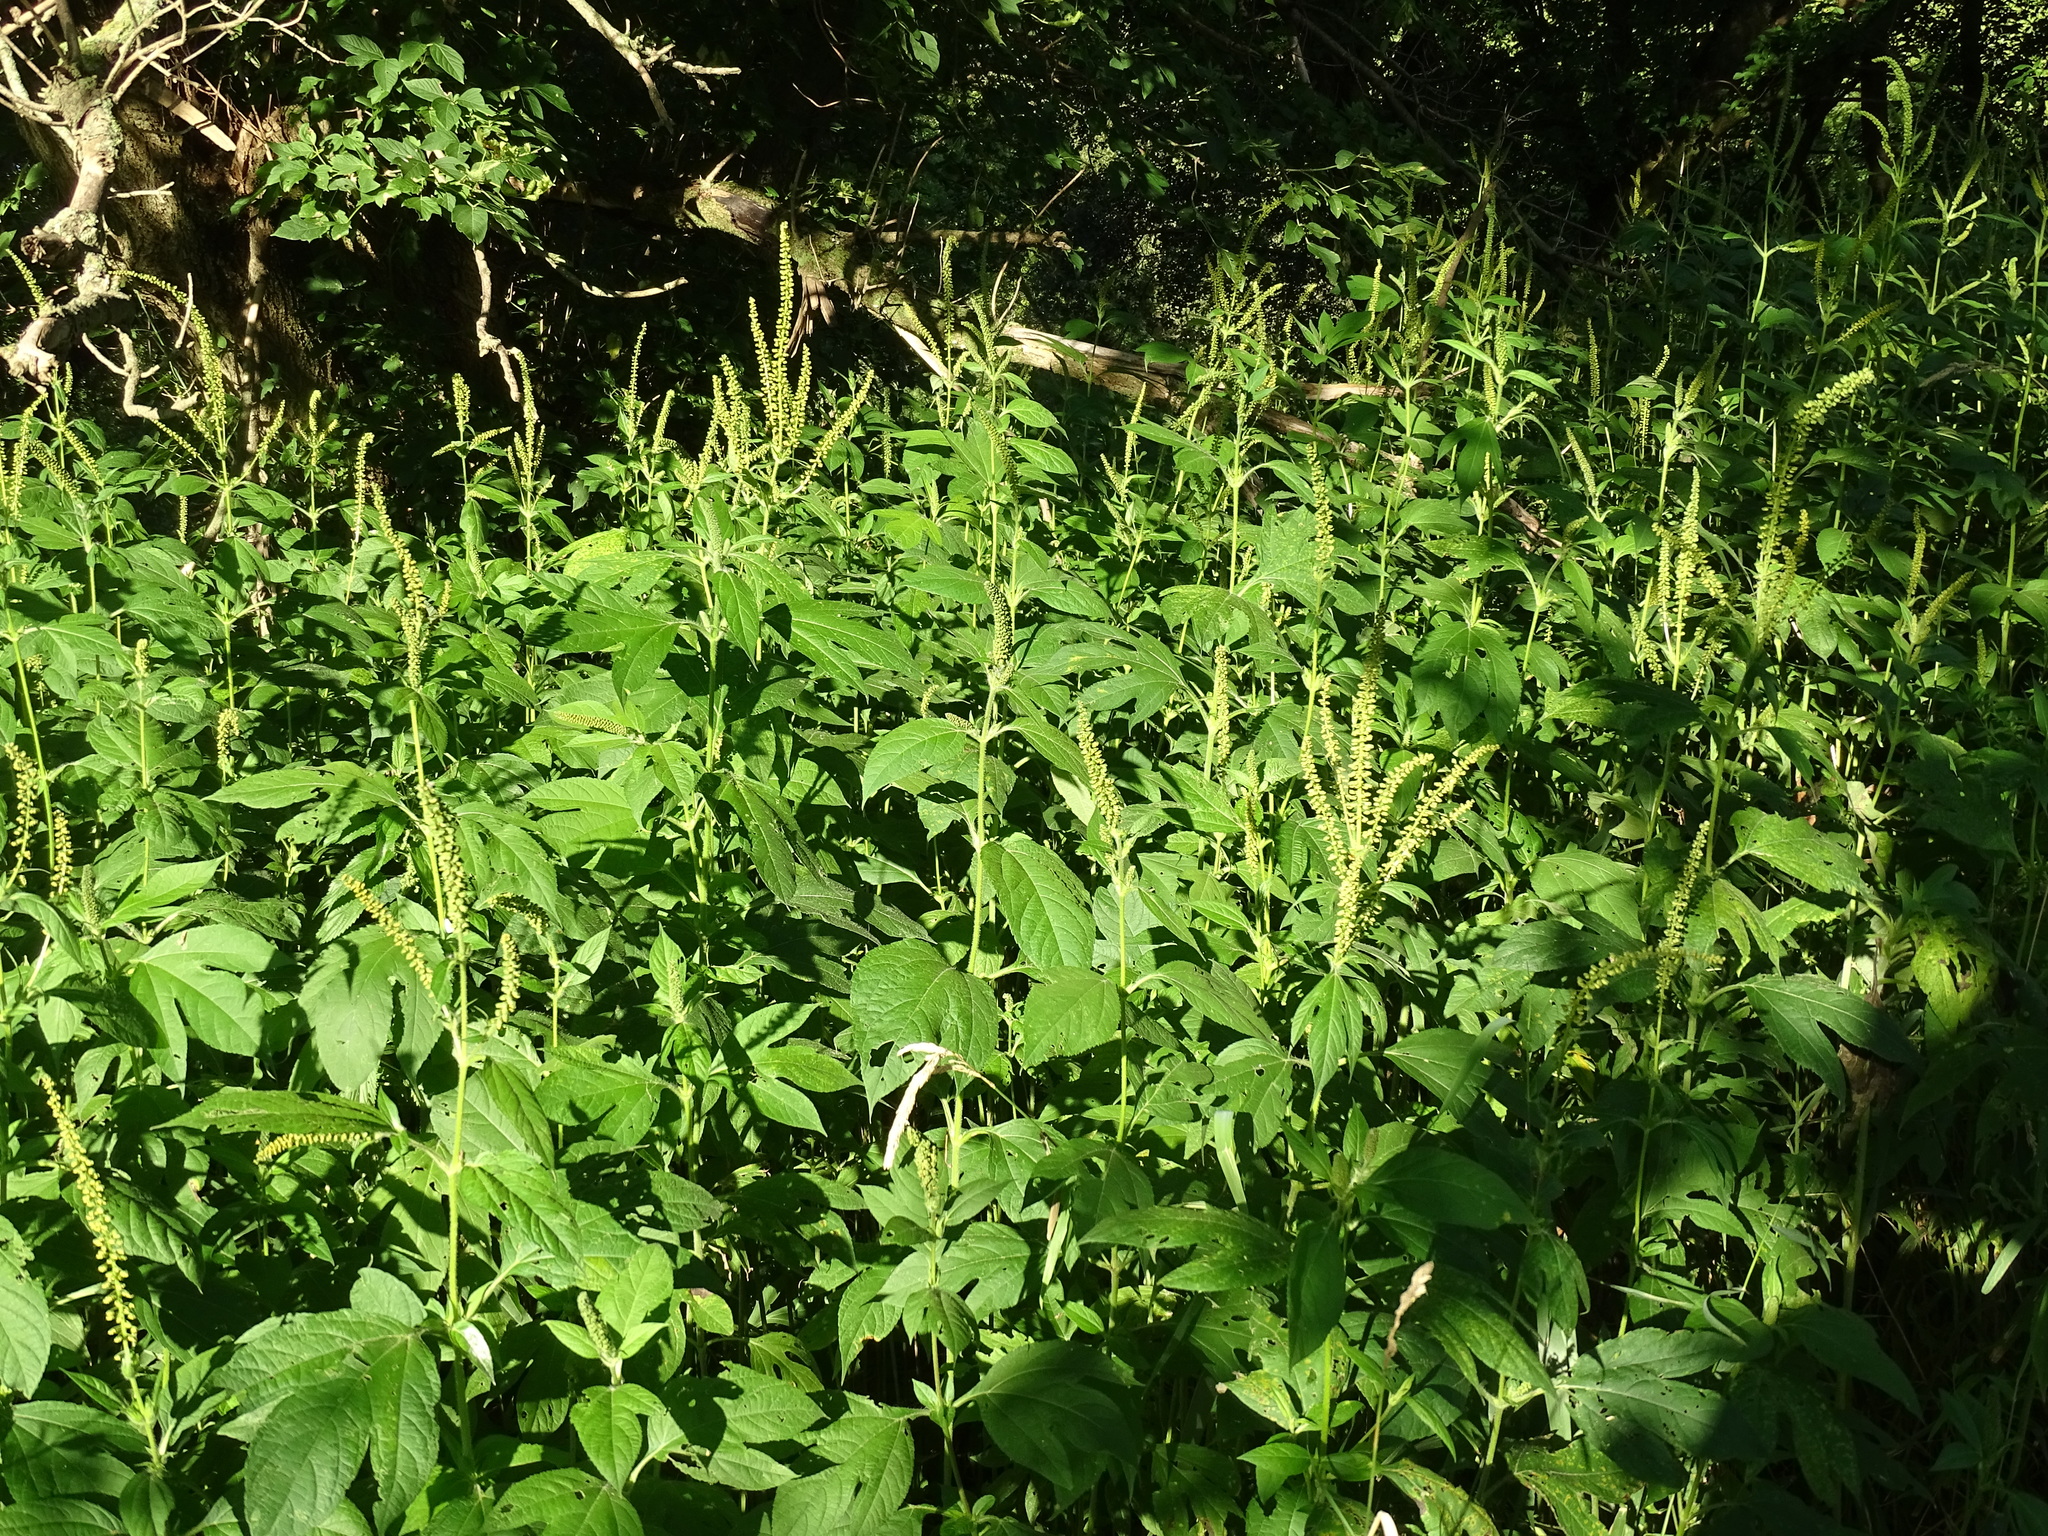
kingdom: Plantae
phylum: Tracheophyta
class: Magnoliopsida
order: Asterales
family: Asteraceae
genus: Ambrosia
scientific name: Ambrosia trifida
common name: Giant ragweed
